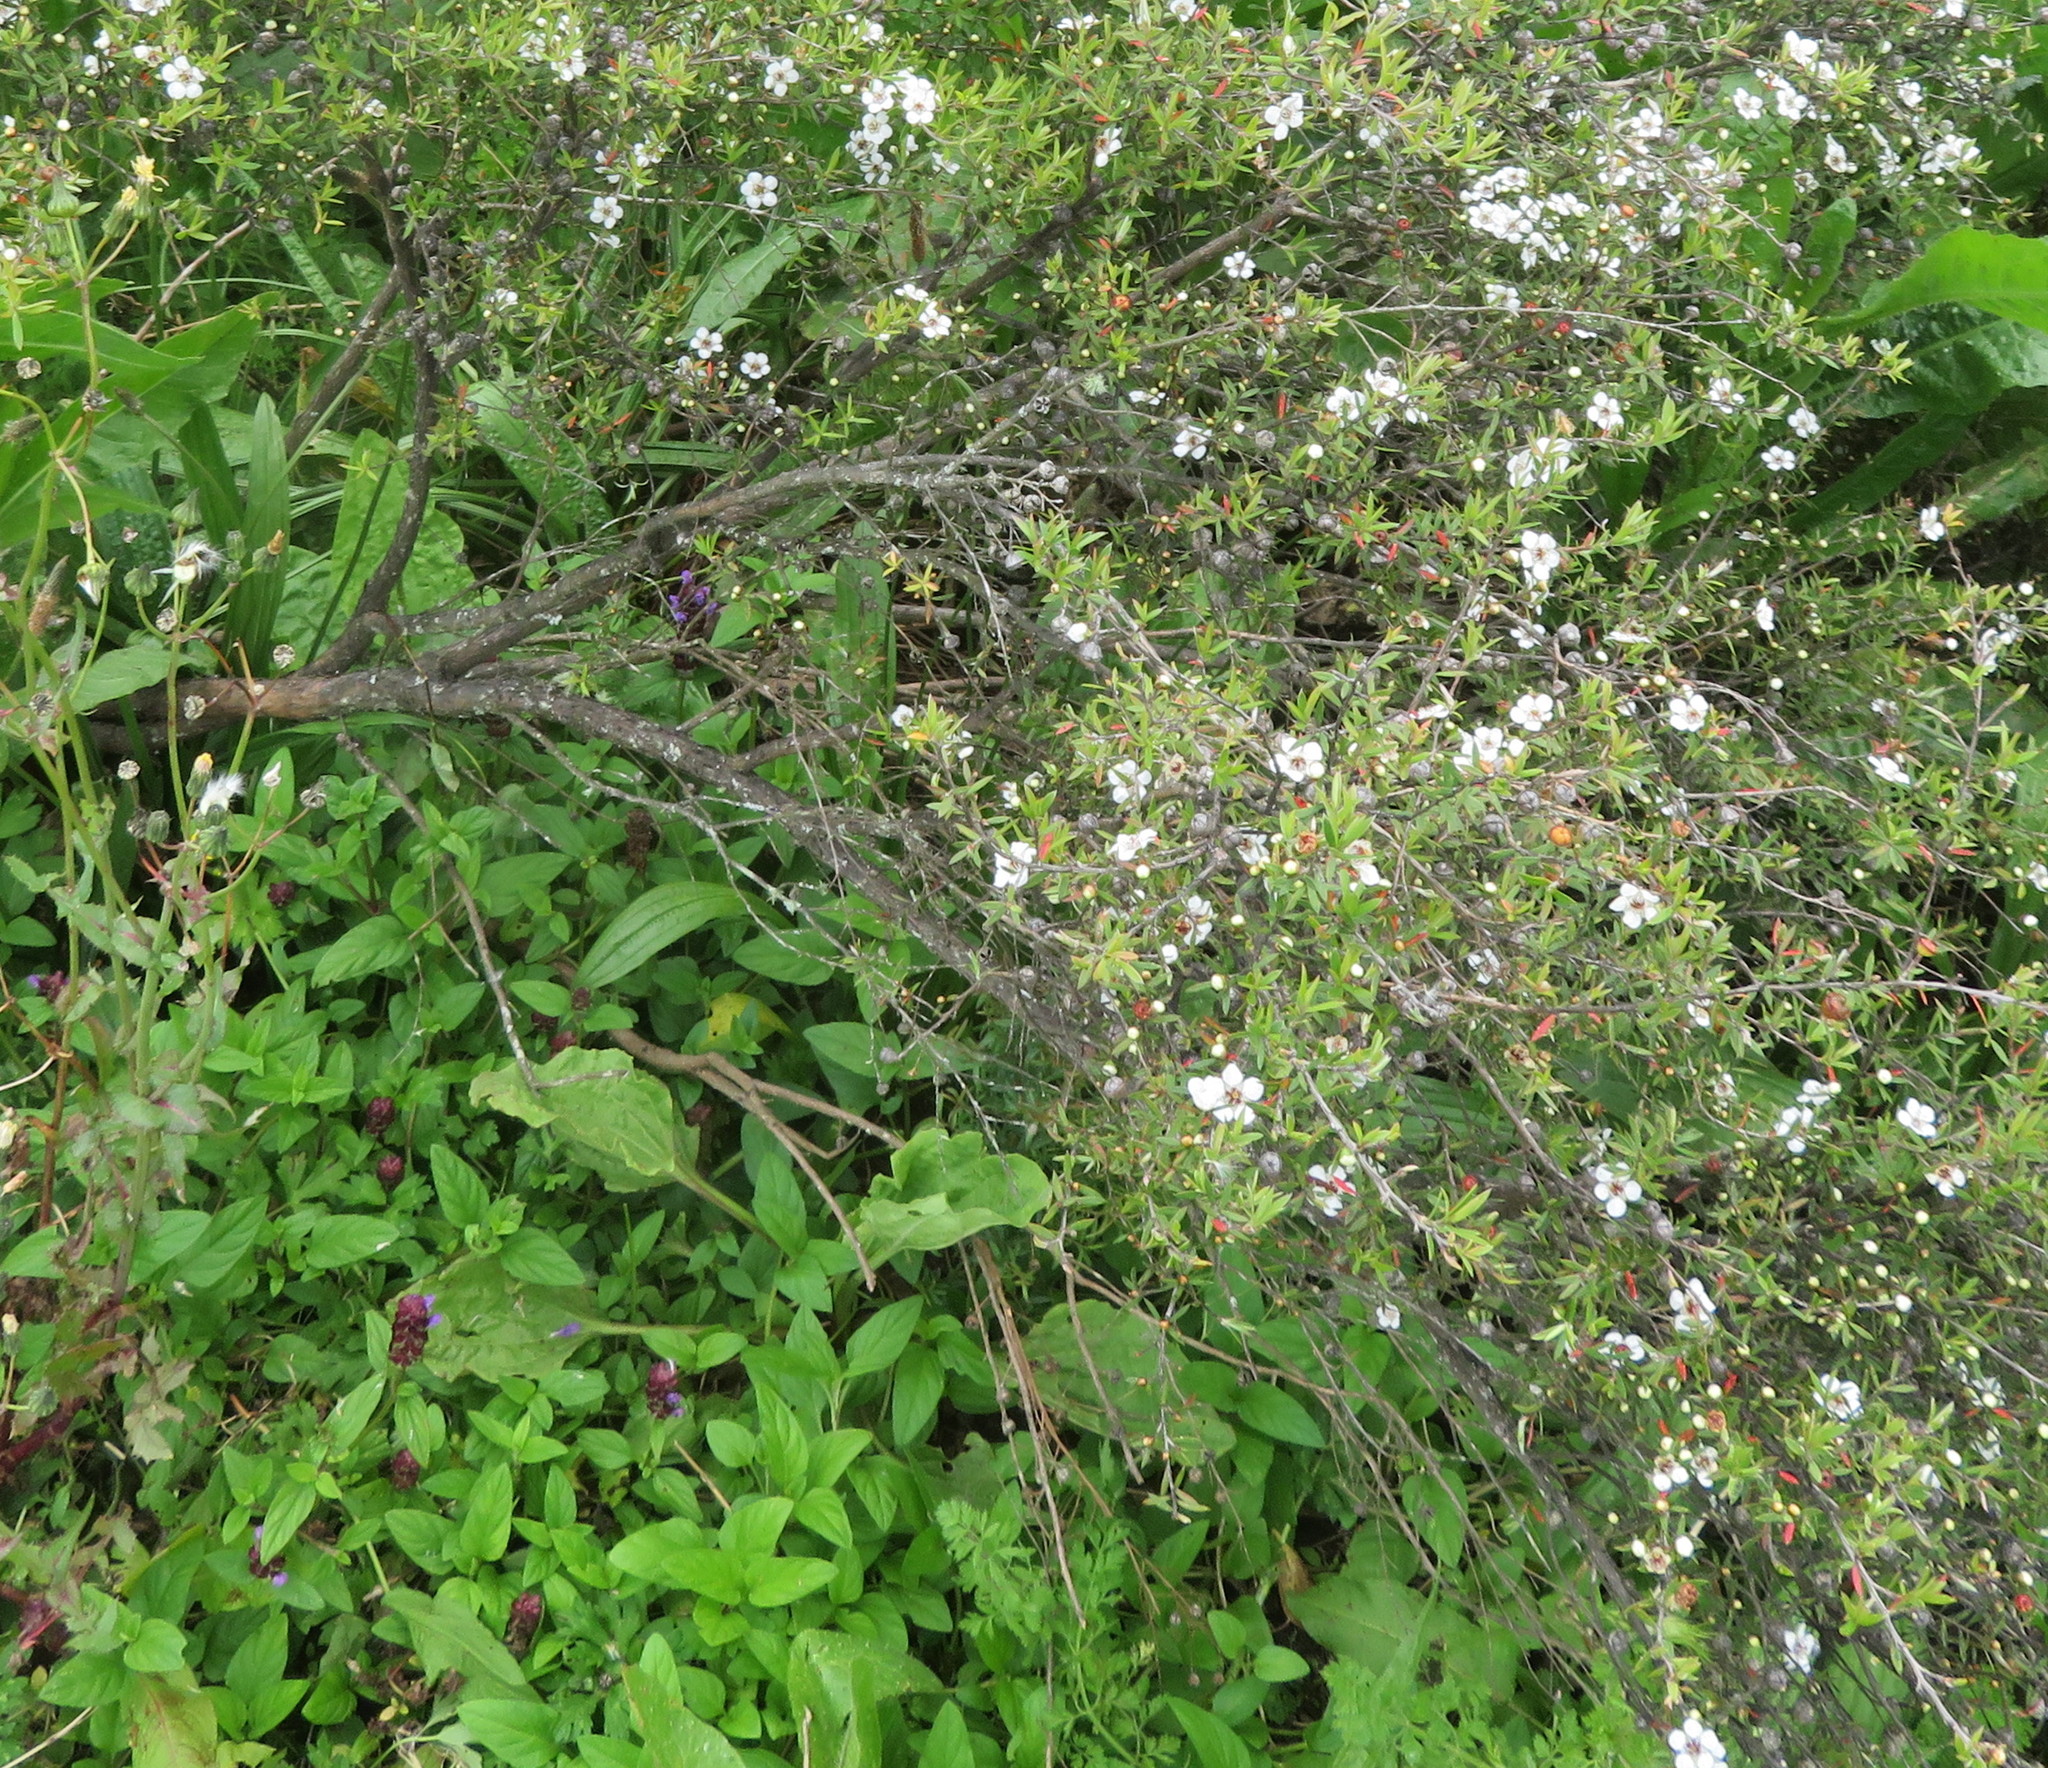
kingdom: Plantae
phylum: Tracheophyta
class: Magnoliopsida
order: Lamiales
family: Lamiaceae
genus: Prunella
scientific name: Prunella vulgaris
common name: Heal-all
